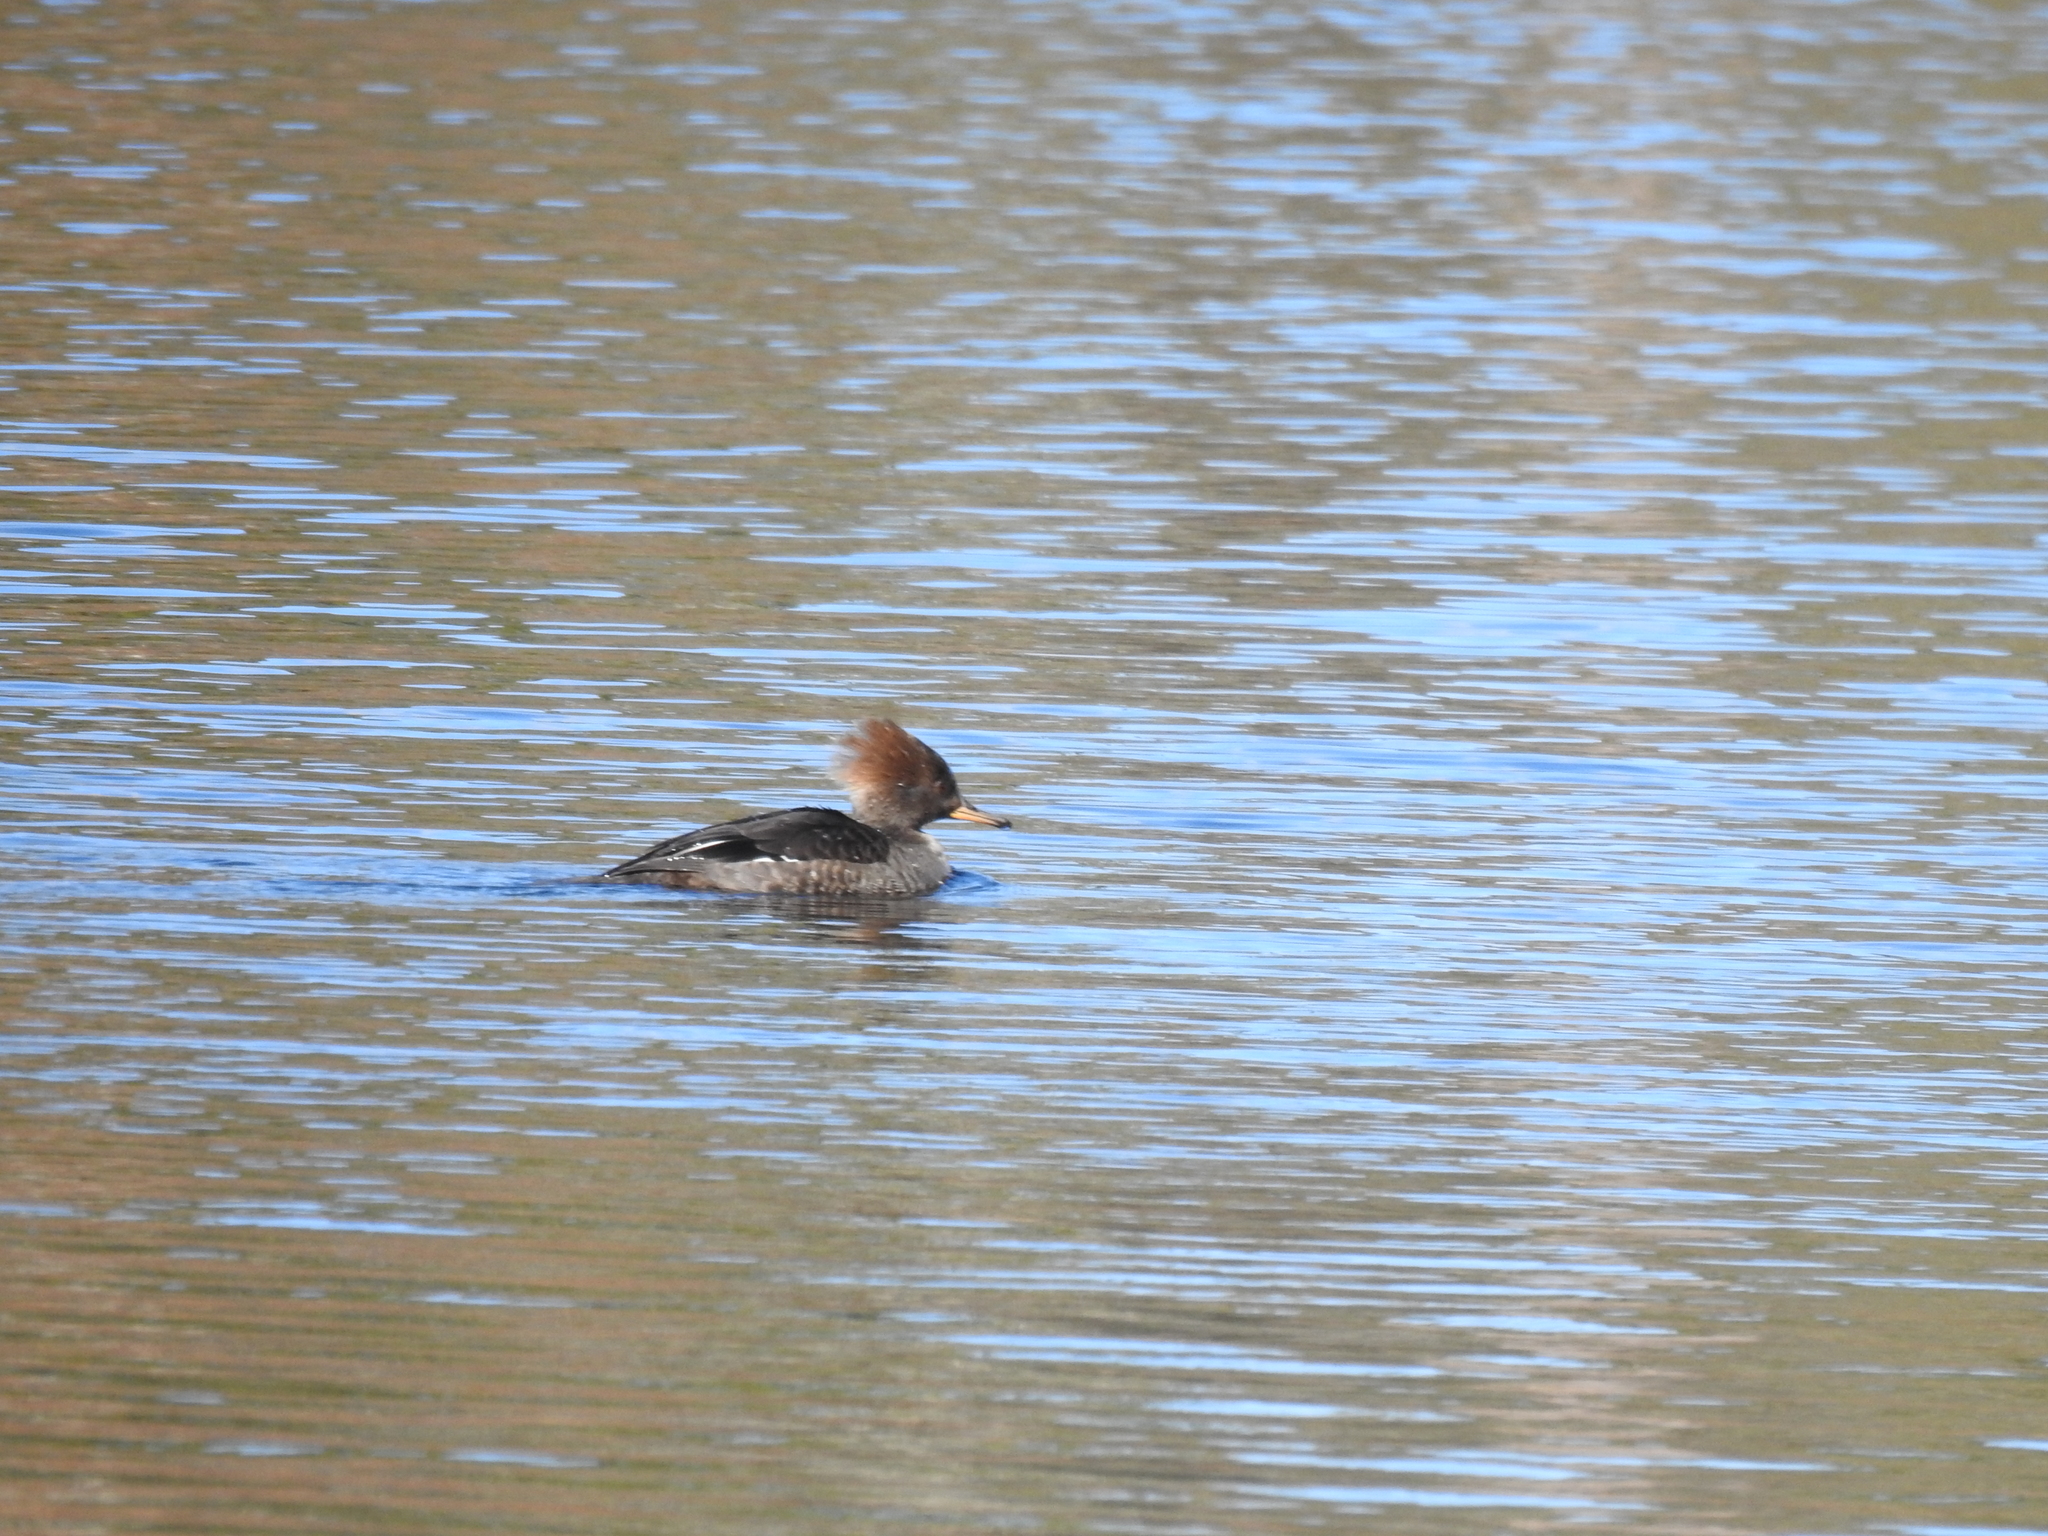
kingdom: Animalia
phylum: Chordata
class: Aves
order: Anseriformes
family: Anatidae
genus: Lophodytes
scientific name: Lophodytes cucullatus
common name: Hooded merganser
